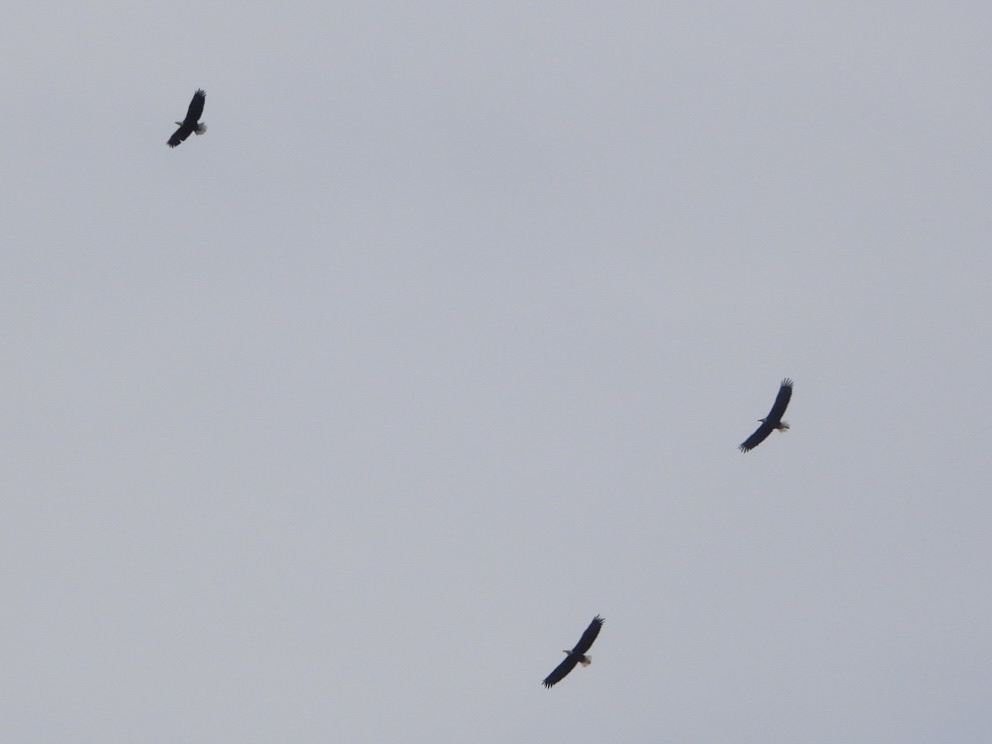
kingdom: Animalia
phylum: Chordata
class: Aves
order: Accipitriformes
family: Accipitridae
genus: Haliaeetus
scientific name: Haliaeetus leucocephalus
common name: Bald eagle
